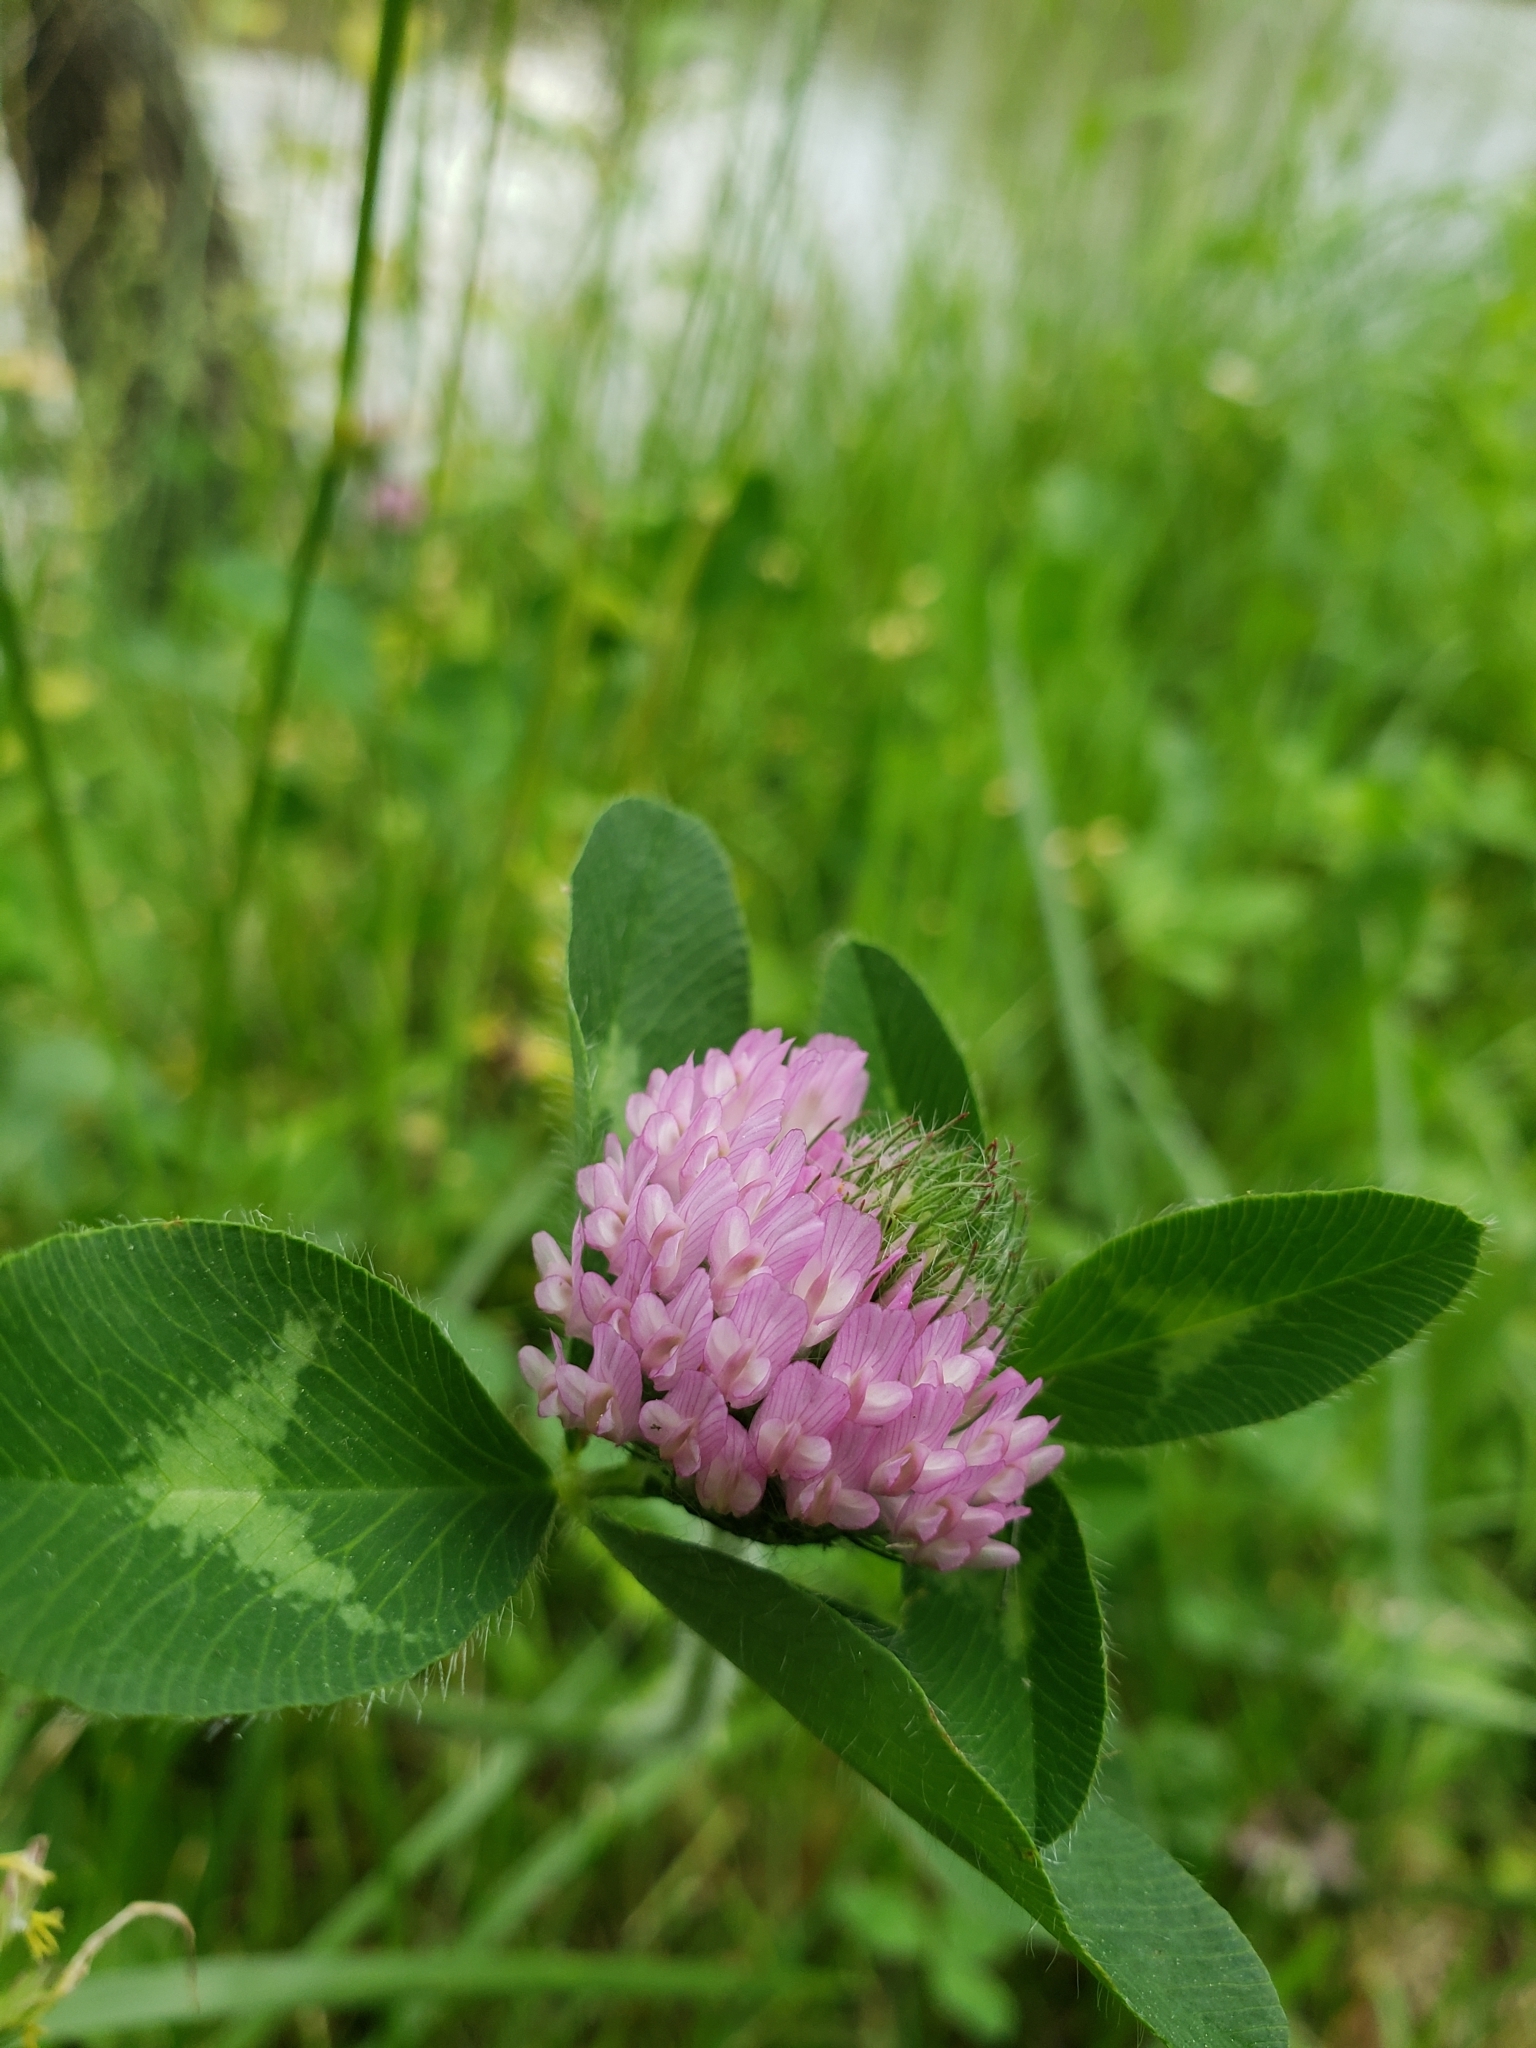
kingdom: Plantae
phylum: Tracheophyta
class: Magnoliopsida
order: Fabales
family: Fabaceae
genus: Trifolium
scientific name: Trifolium pratense
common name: Red clover
